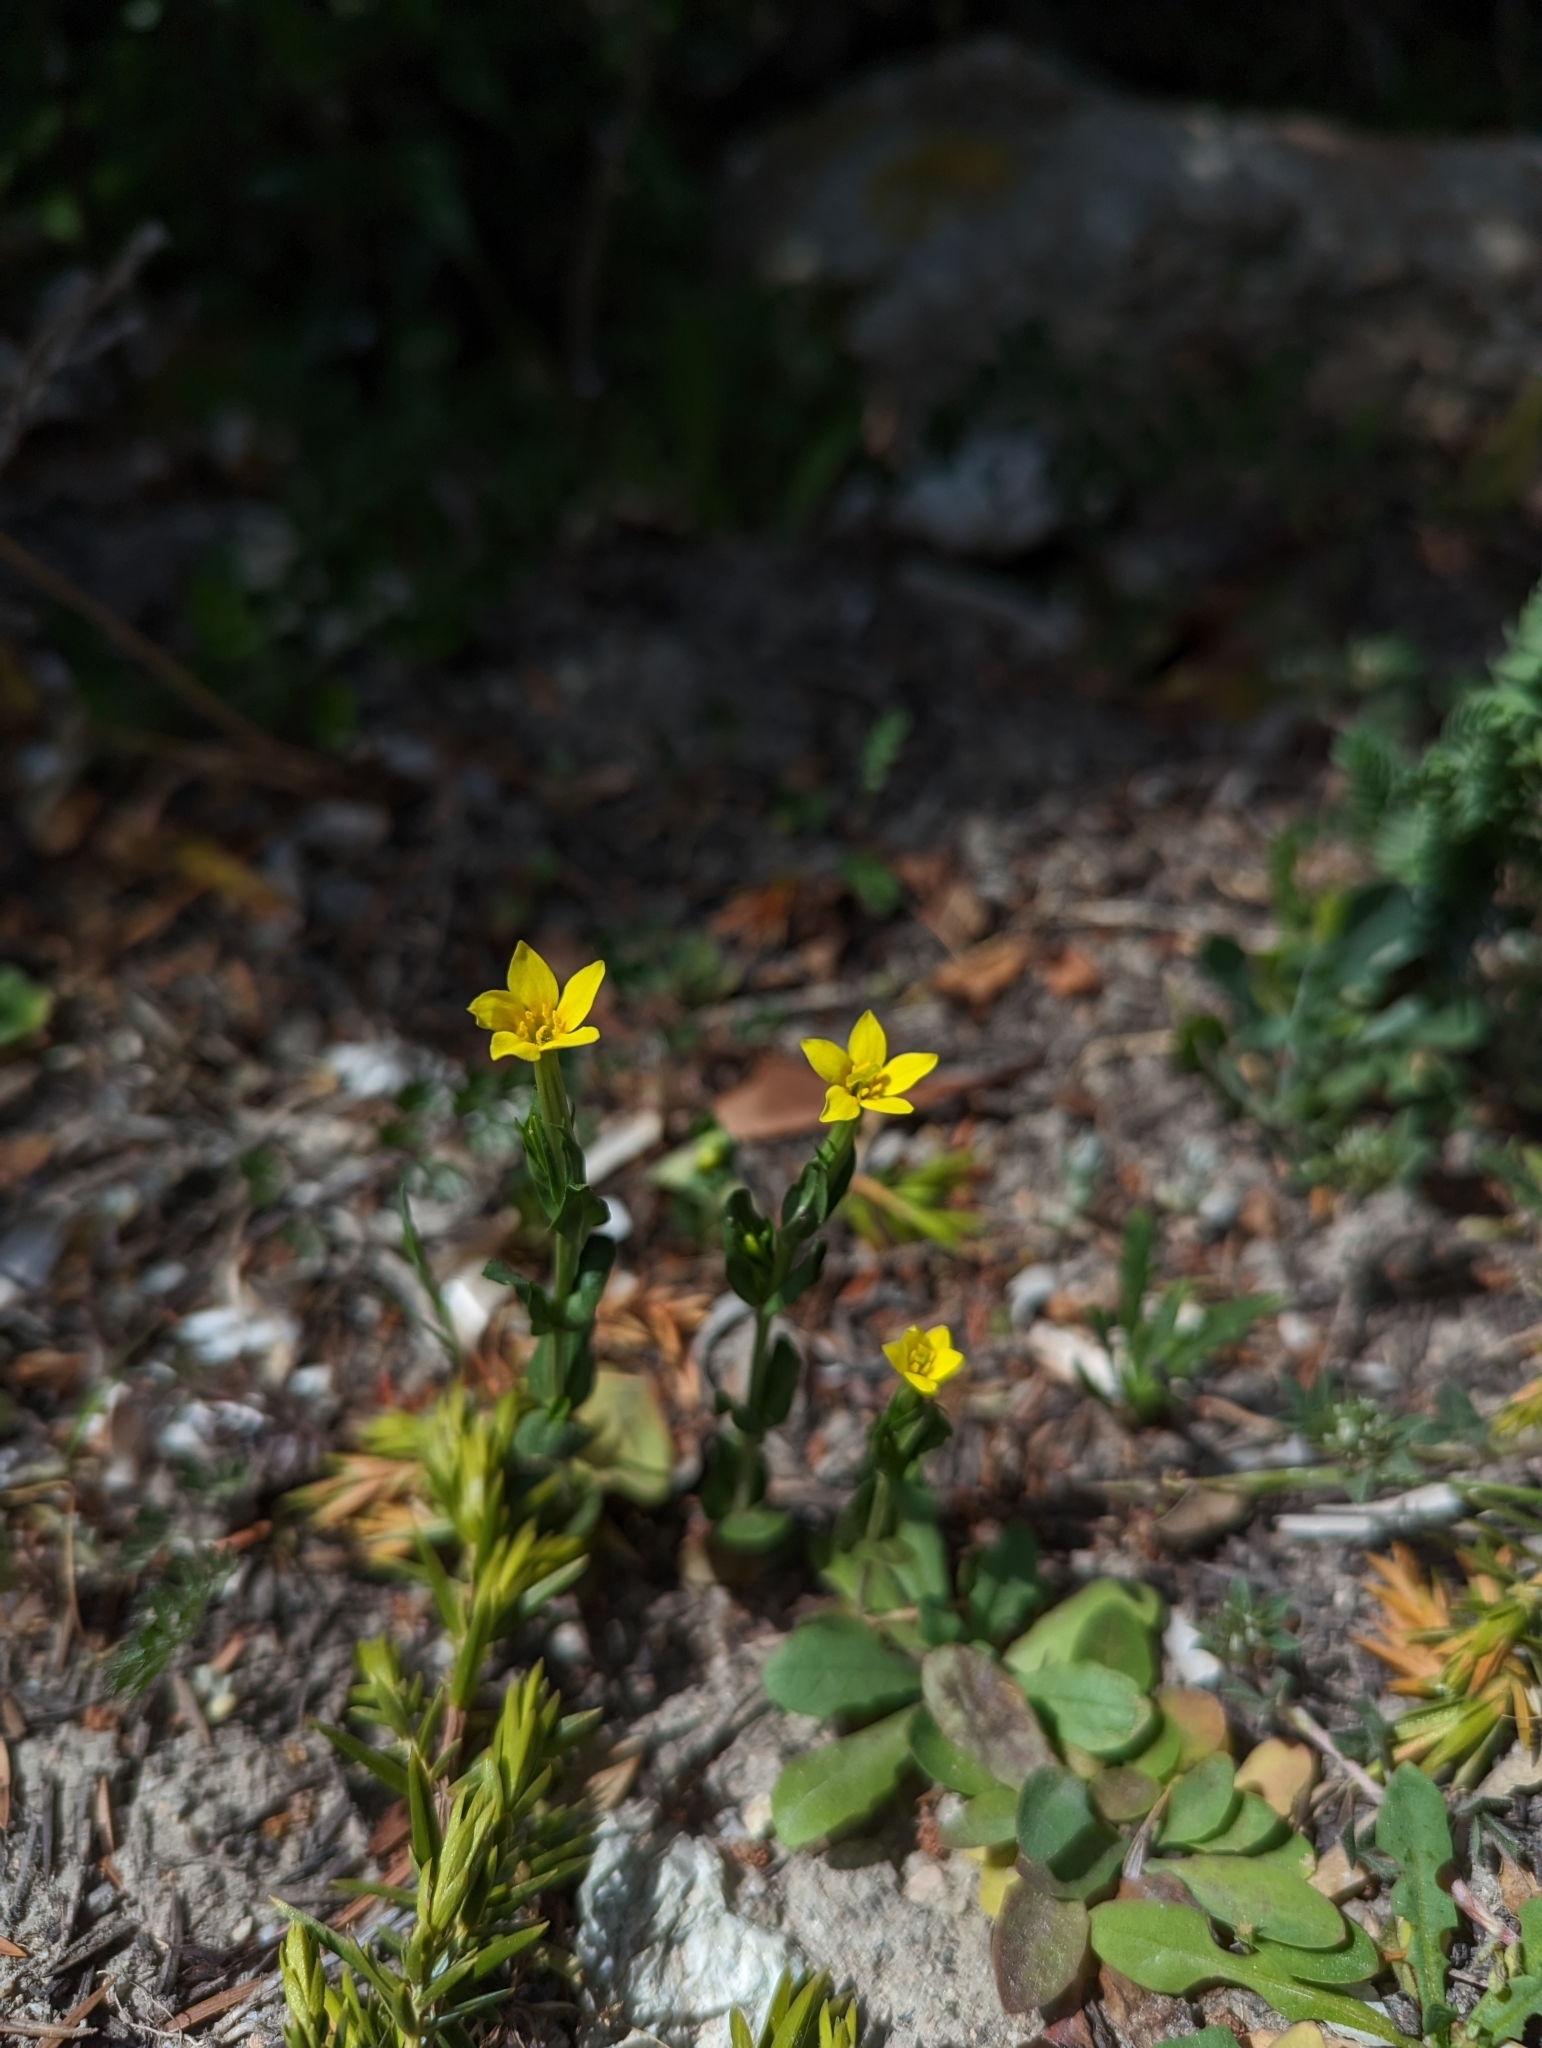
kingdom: Plantae
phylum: Tracheophyta
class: Magnoliopsida
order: Gentianales
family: Gentianaceae
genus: Centaurium
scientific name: Centaurium maritimum
